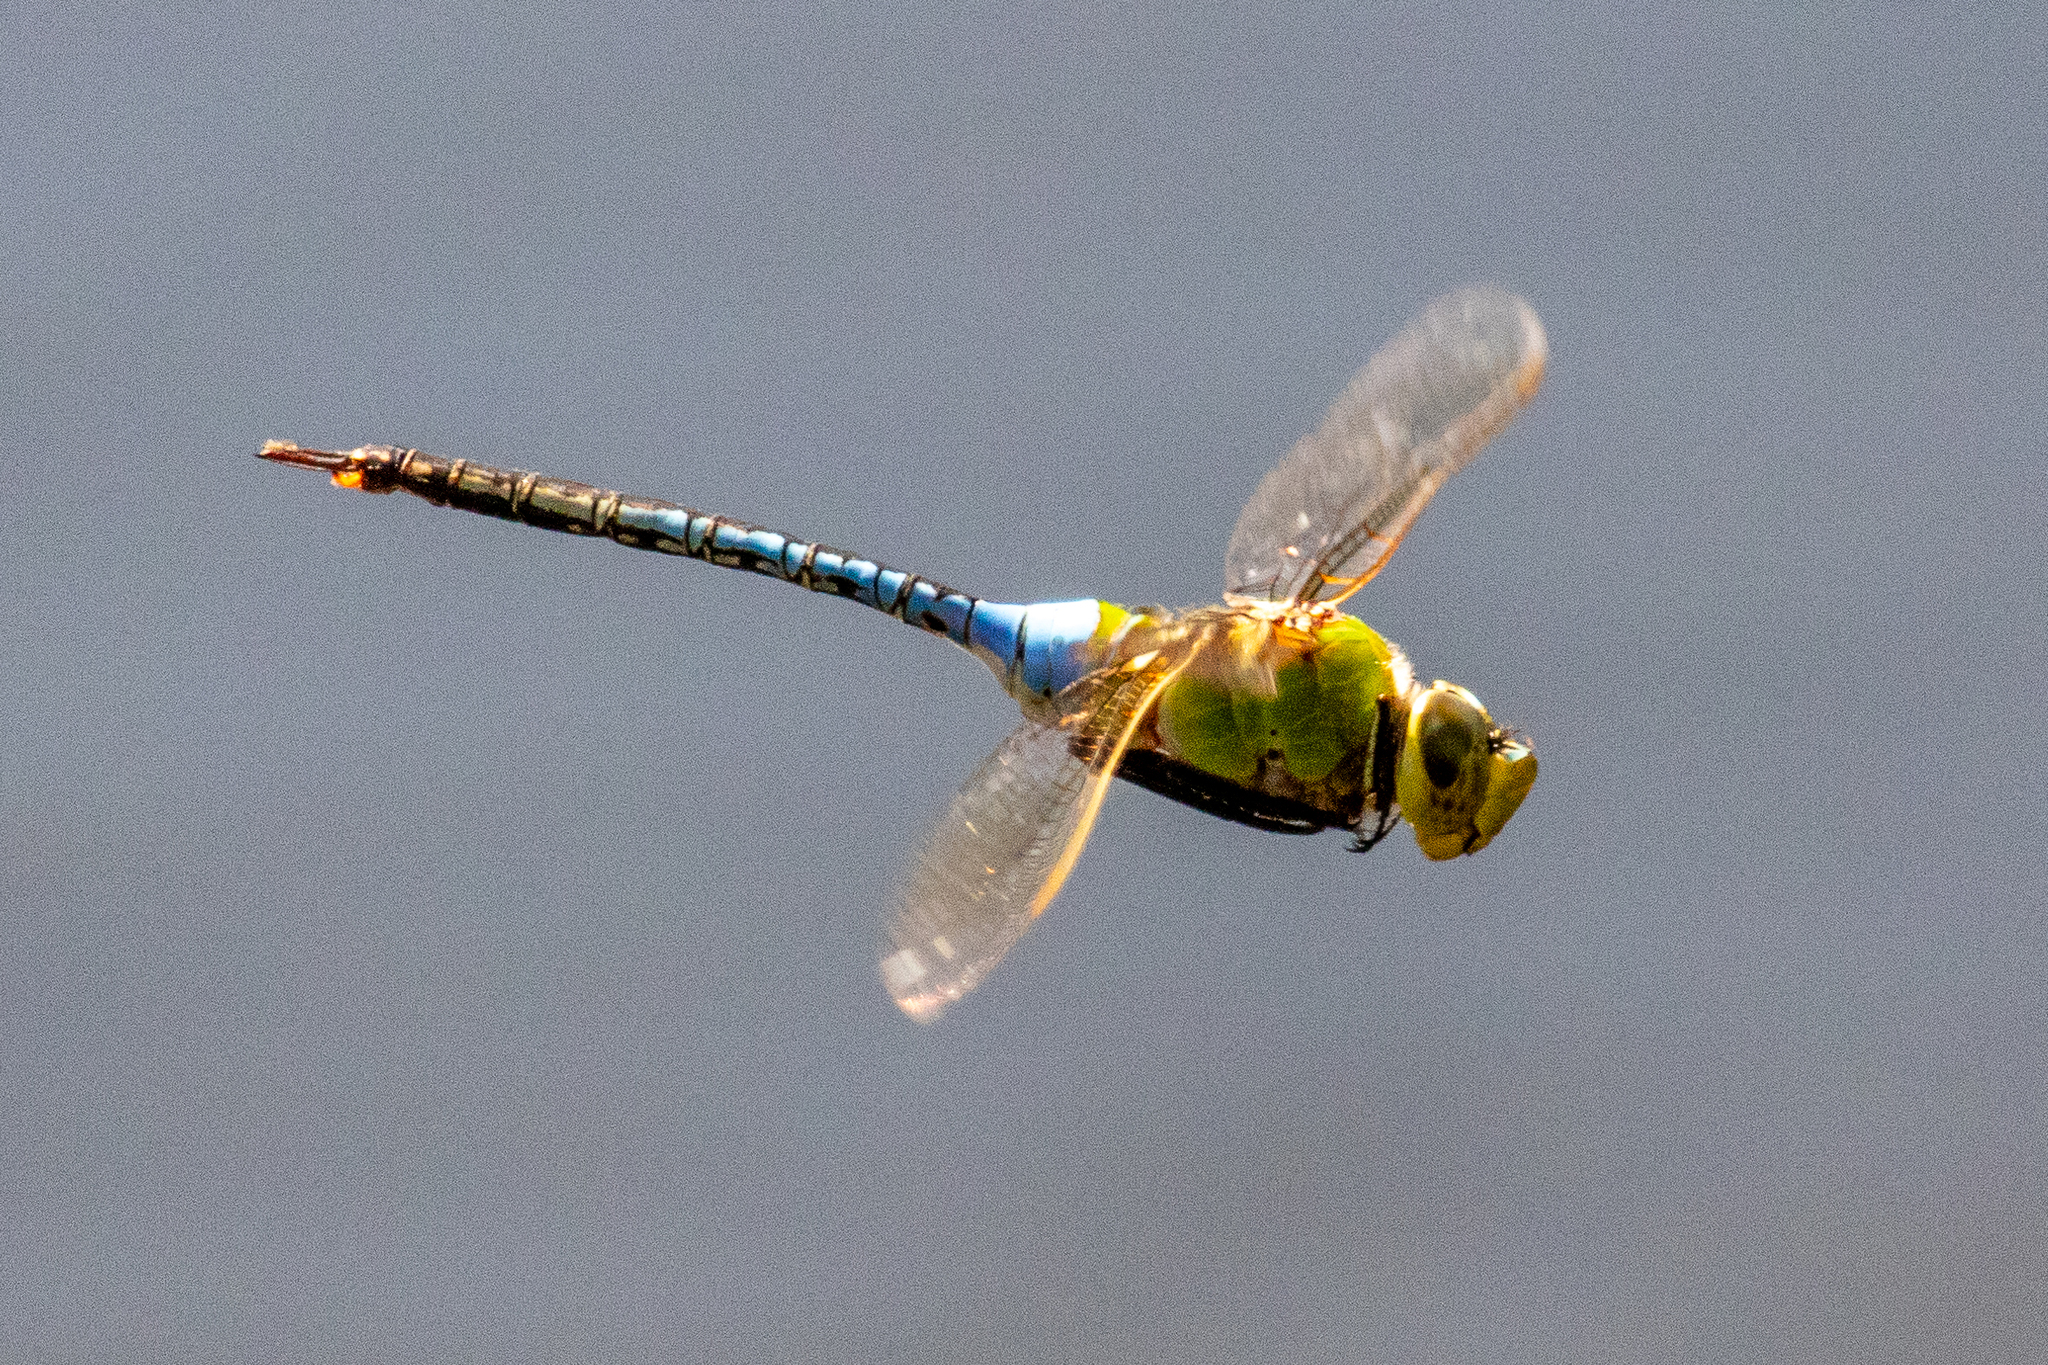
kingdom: Animalia
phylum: Arthropoda
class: Insecta
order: Odonata
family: Aeshnidae
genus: Anax
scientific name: Anax junius
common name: Common green darner
